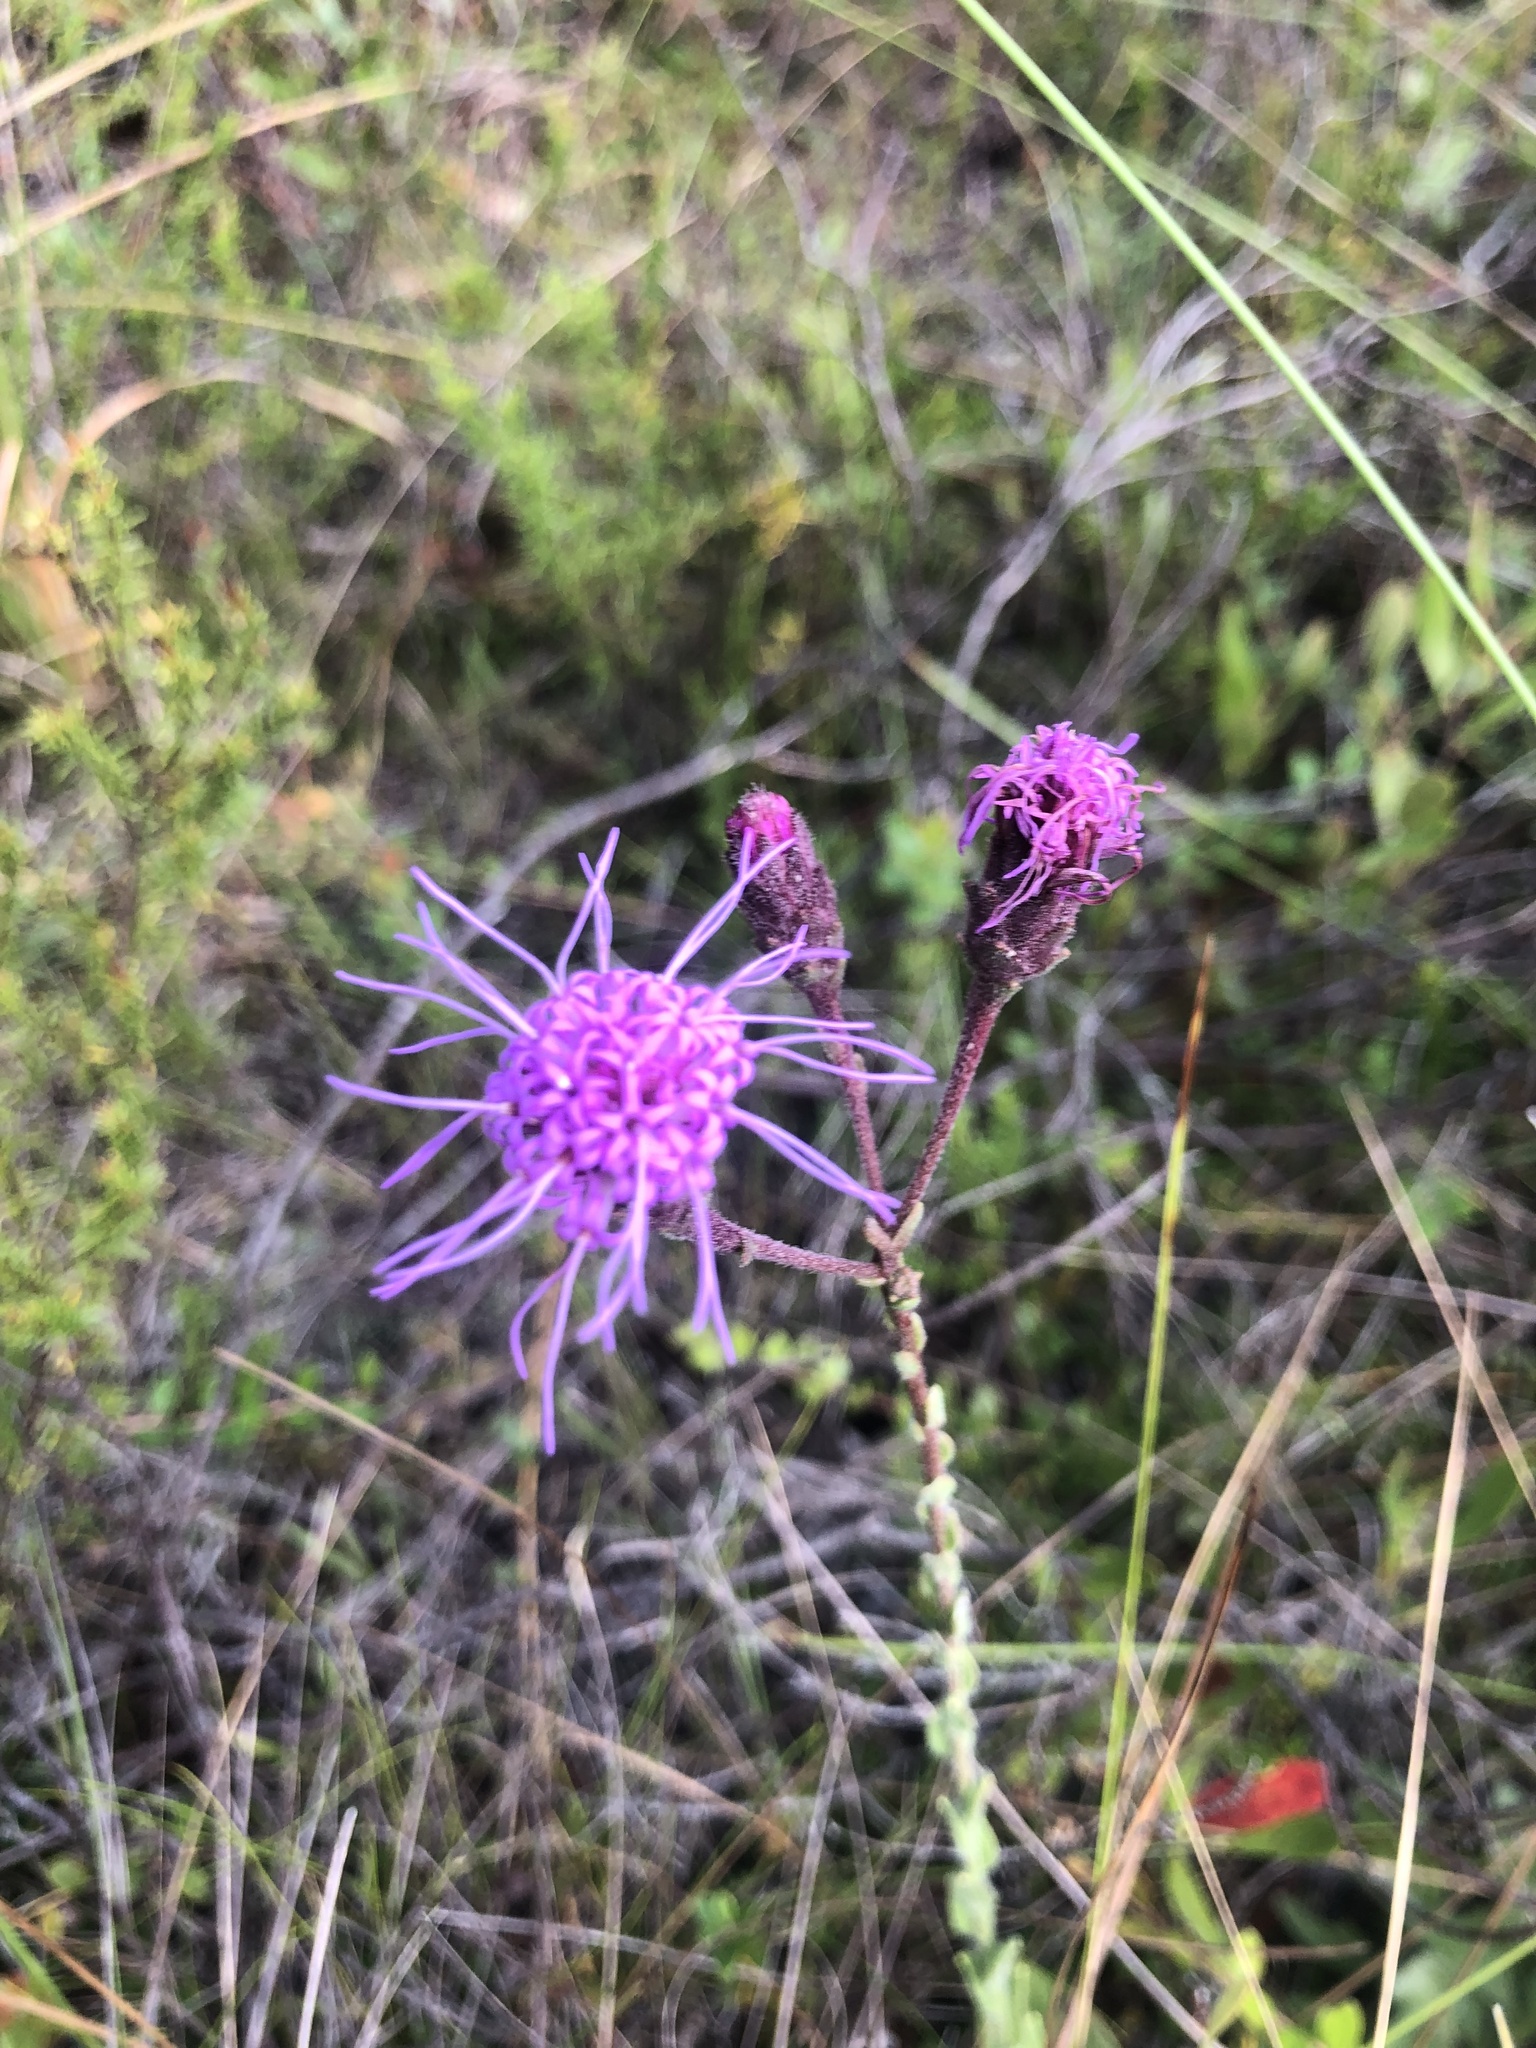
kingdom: Plantae
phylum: Tracheophyta
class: Magnoliopsida
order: Asterales
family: Asteraceae
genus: Carphephorus
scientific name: Carphephorus tomentosus
